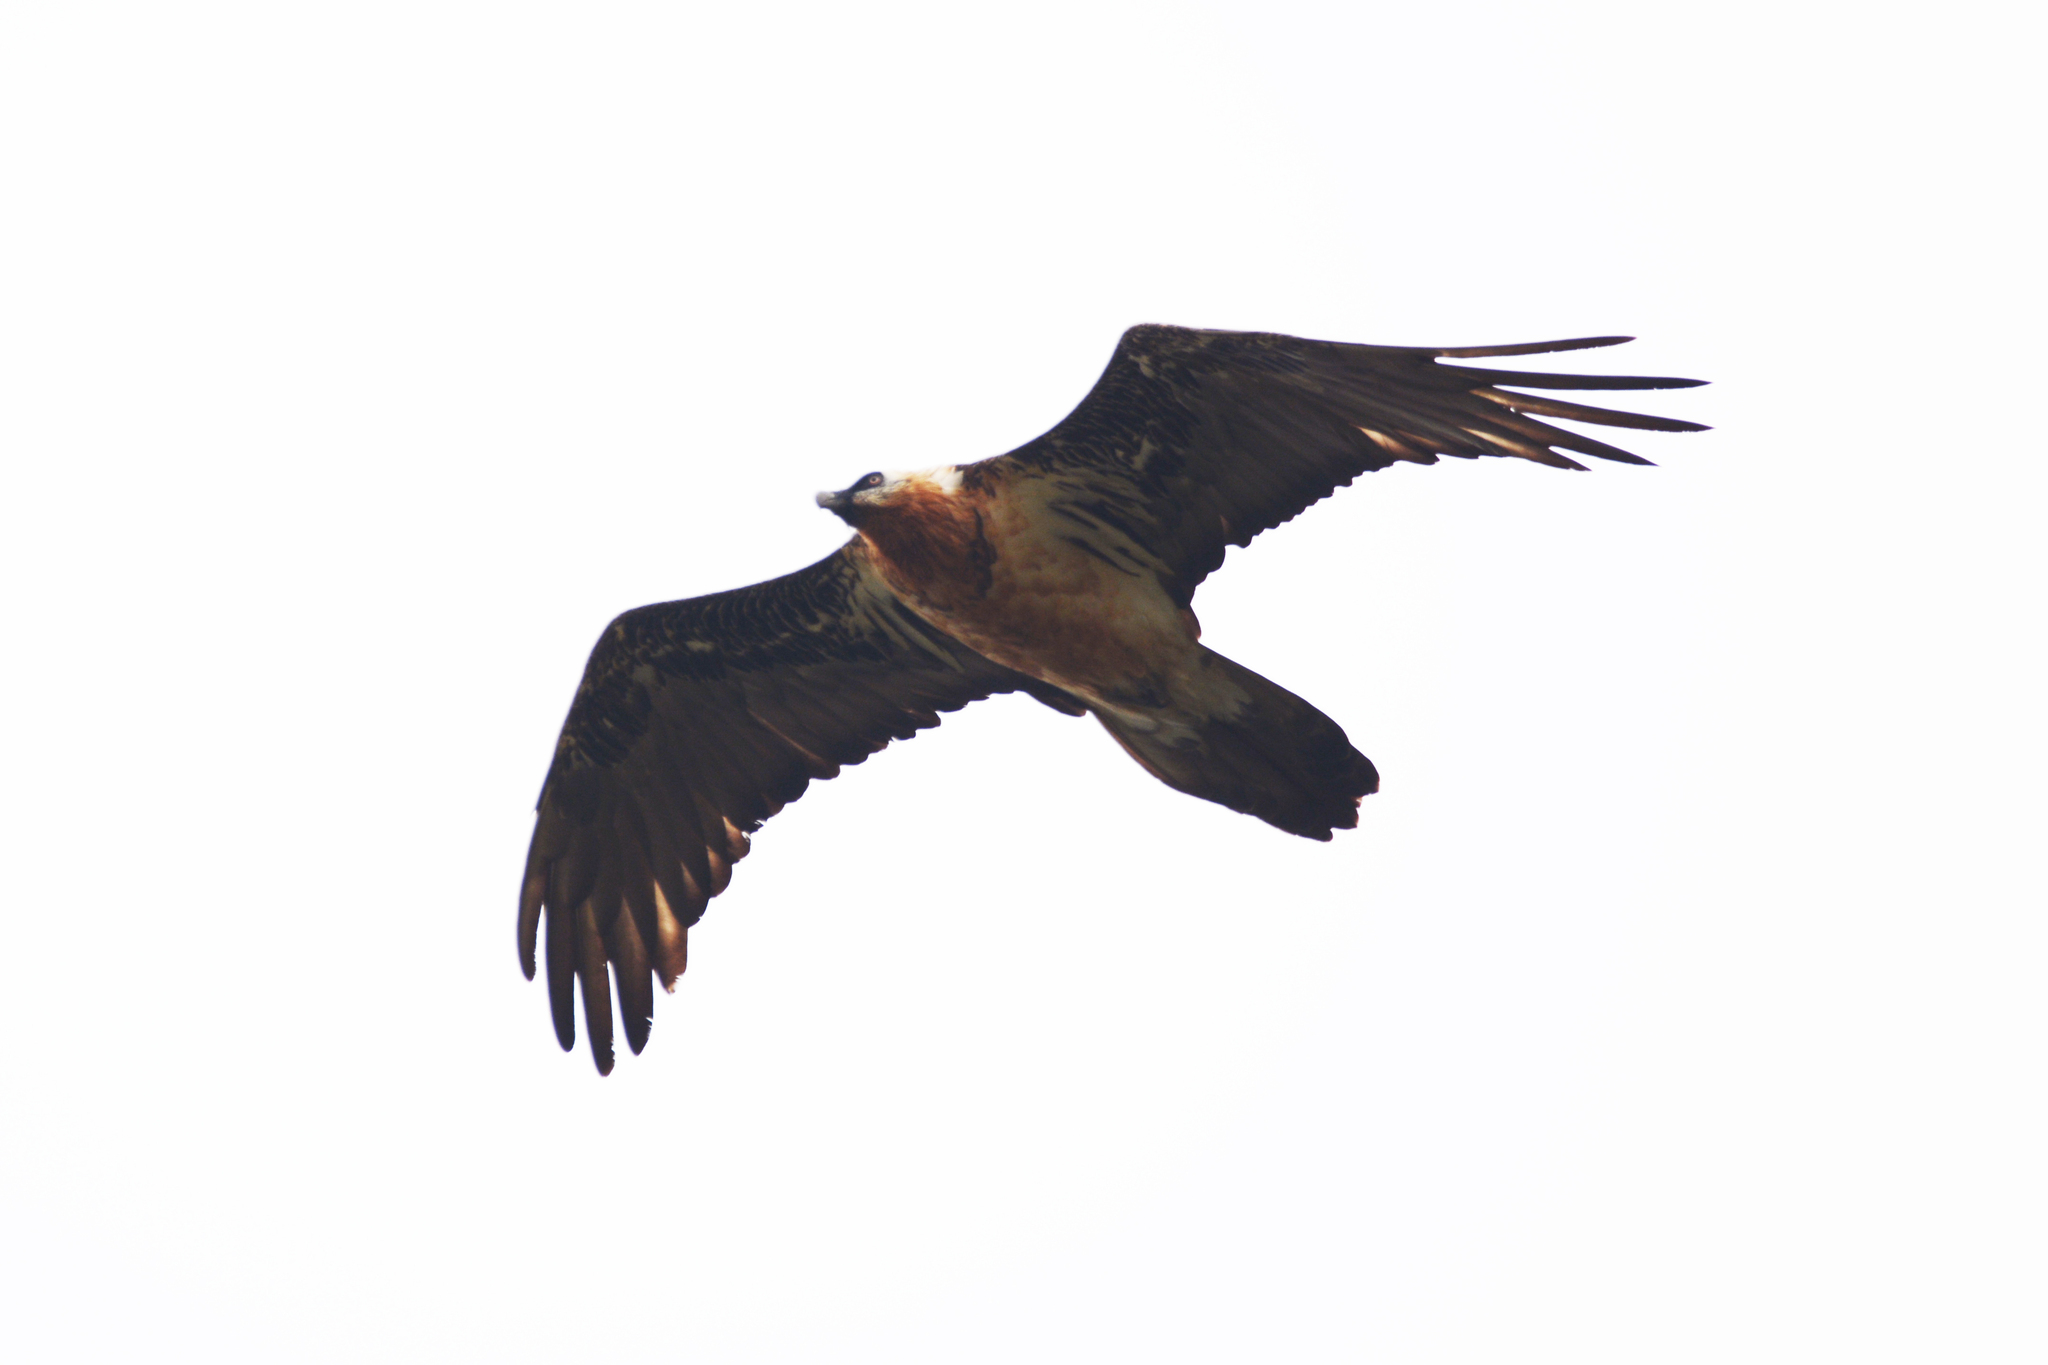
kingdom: Animalia
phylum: Chordata
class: Aves
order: Accipitriformes
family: Accipitridae
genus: Gypaetus
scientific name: Gypaetus barbatus
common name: Bearded vulture
